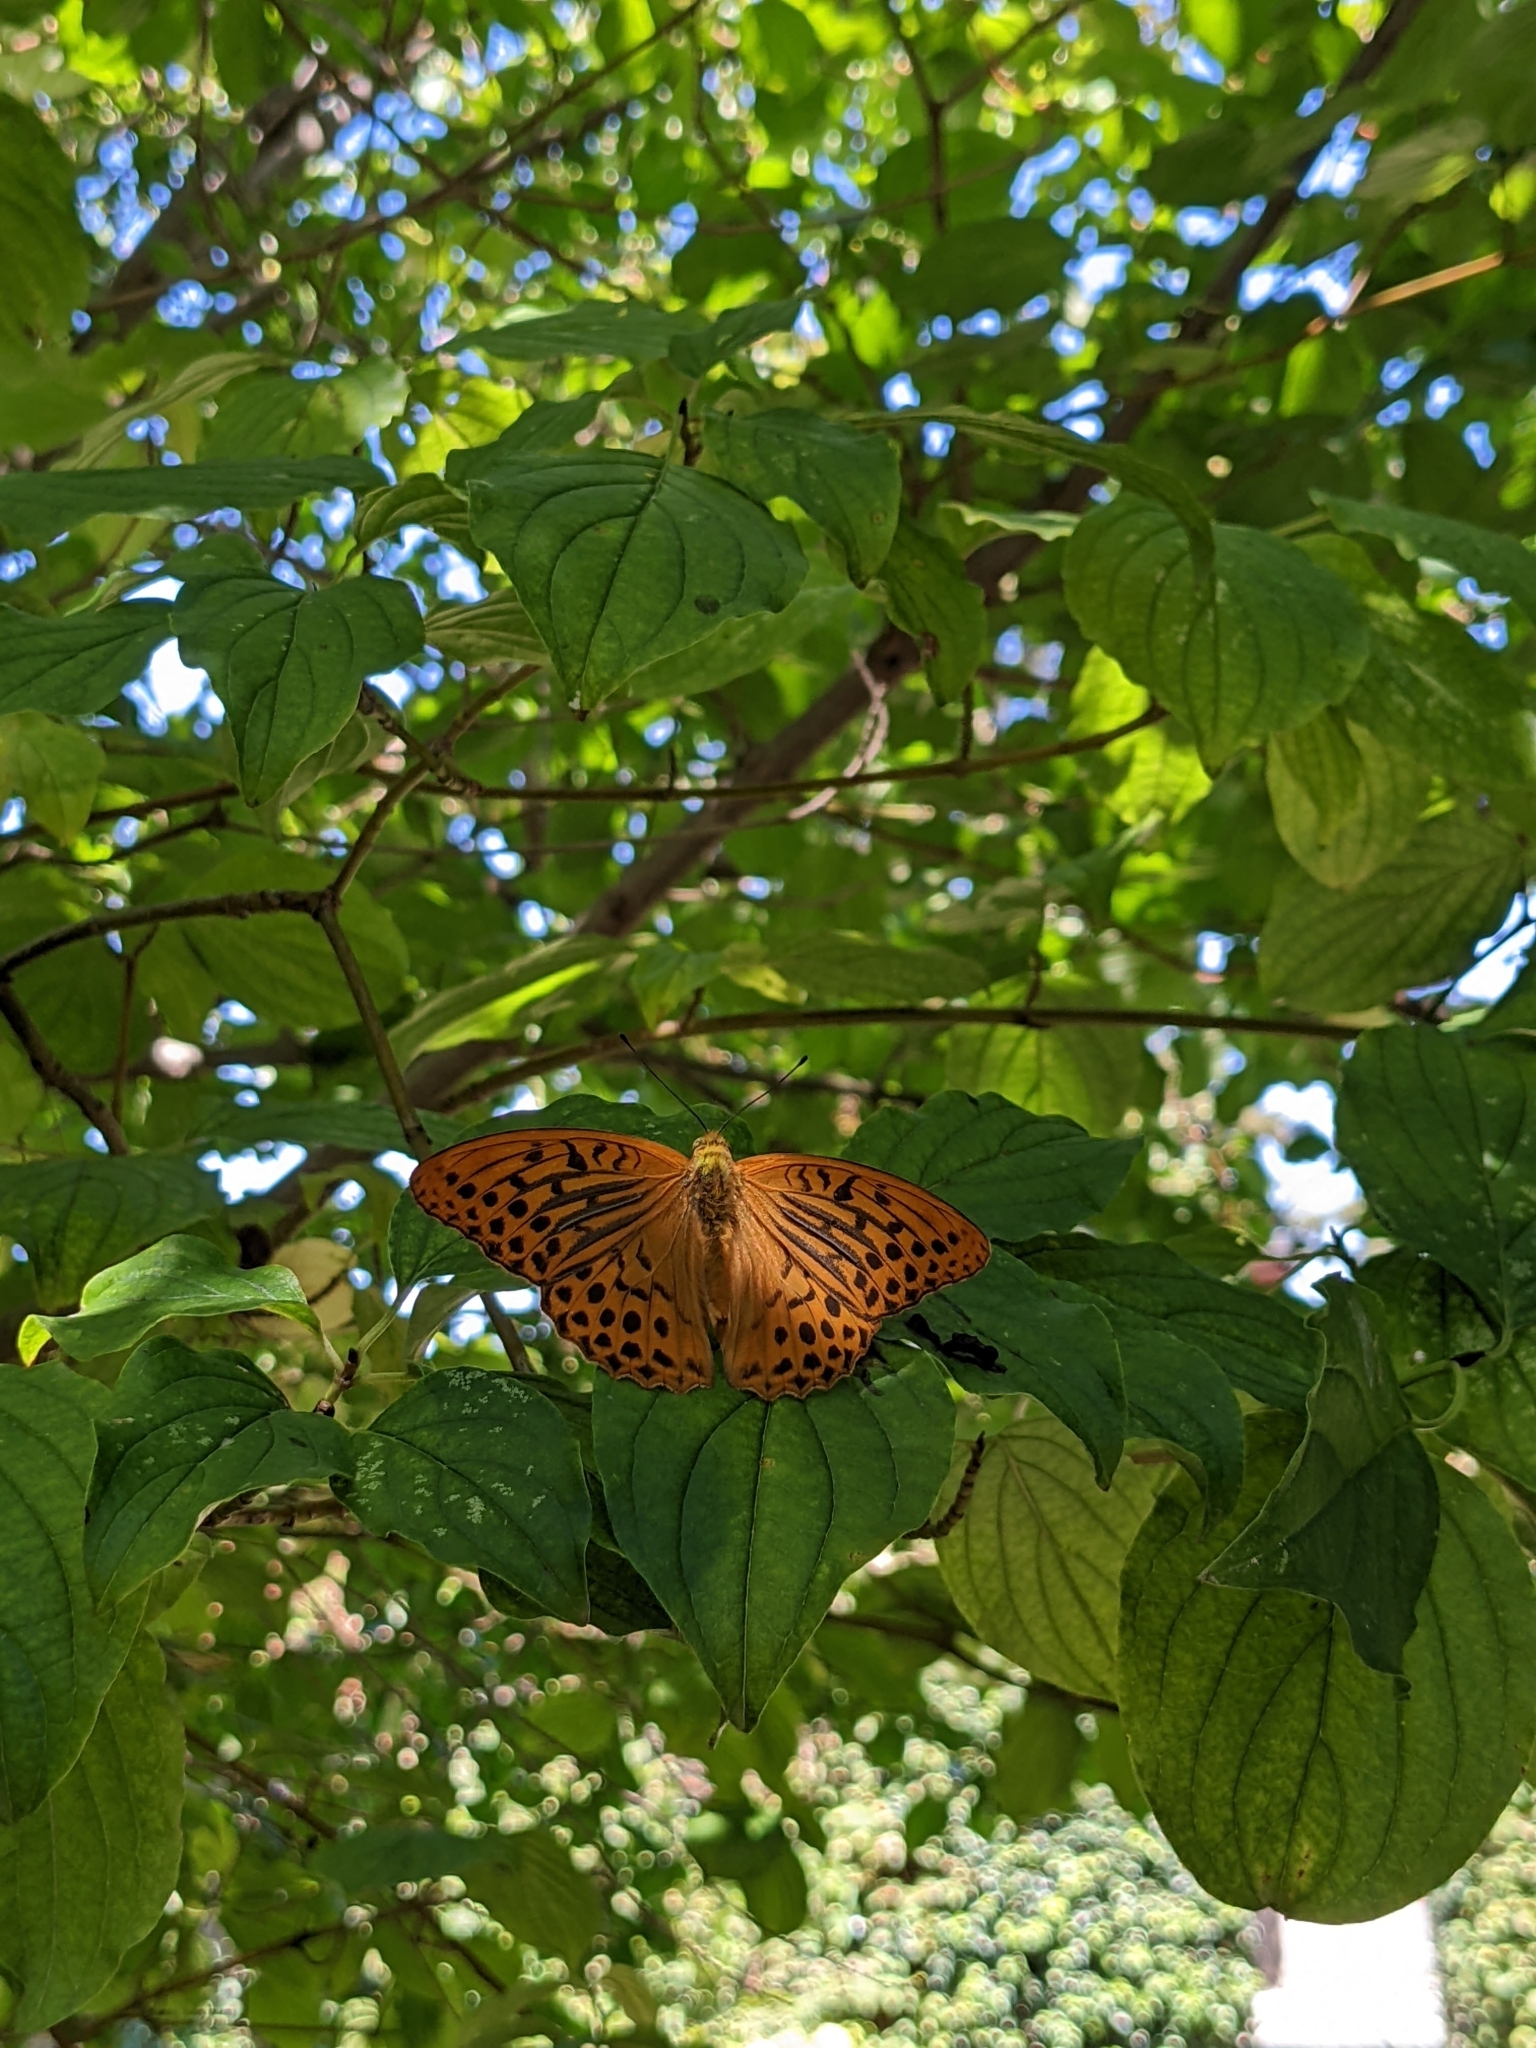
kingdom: Animalia
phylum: Arthropoda
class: Insecta
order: Lepidoptera
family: Nymphalidae
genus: Argynnis
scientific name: Argynnis paphia
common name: Silver-washed fritillary
